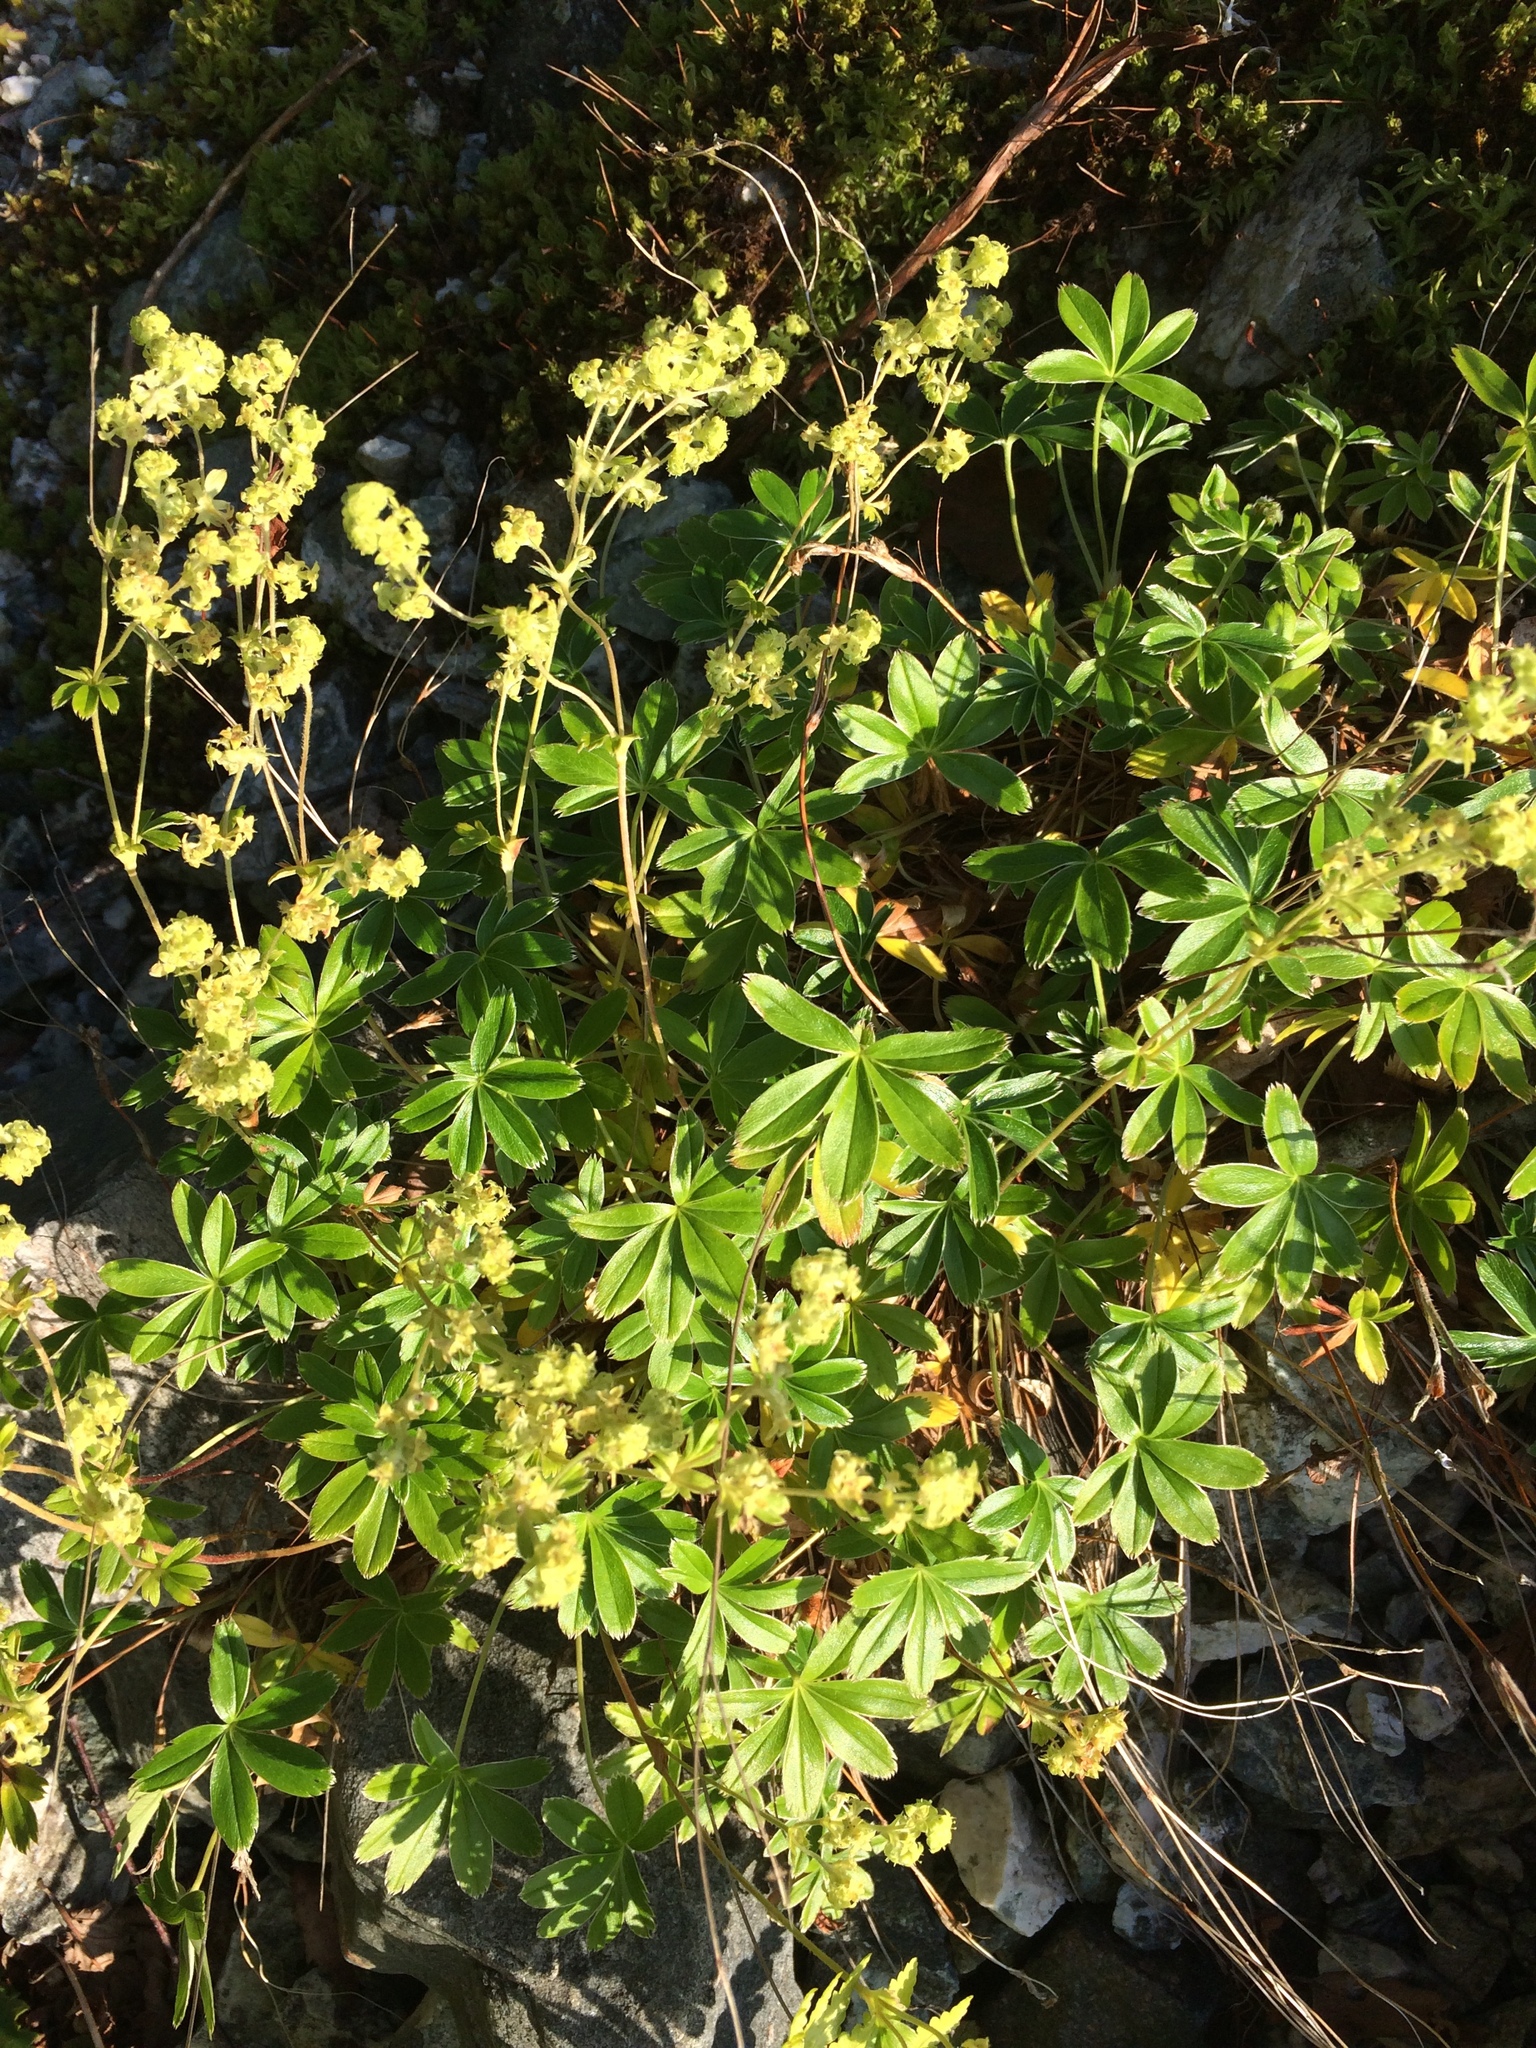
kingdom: Plantae
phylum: Tracheophyta
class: Magnoliopsida
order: Rosales
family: Rosaceae
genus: Alchemilla
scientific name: Alchemilla alpina
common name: Alpine lady's-mantle
